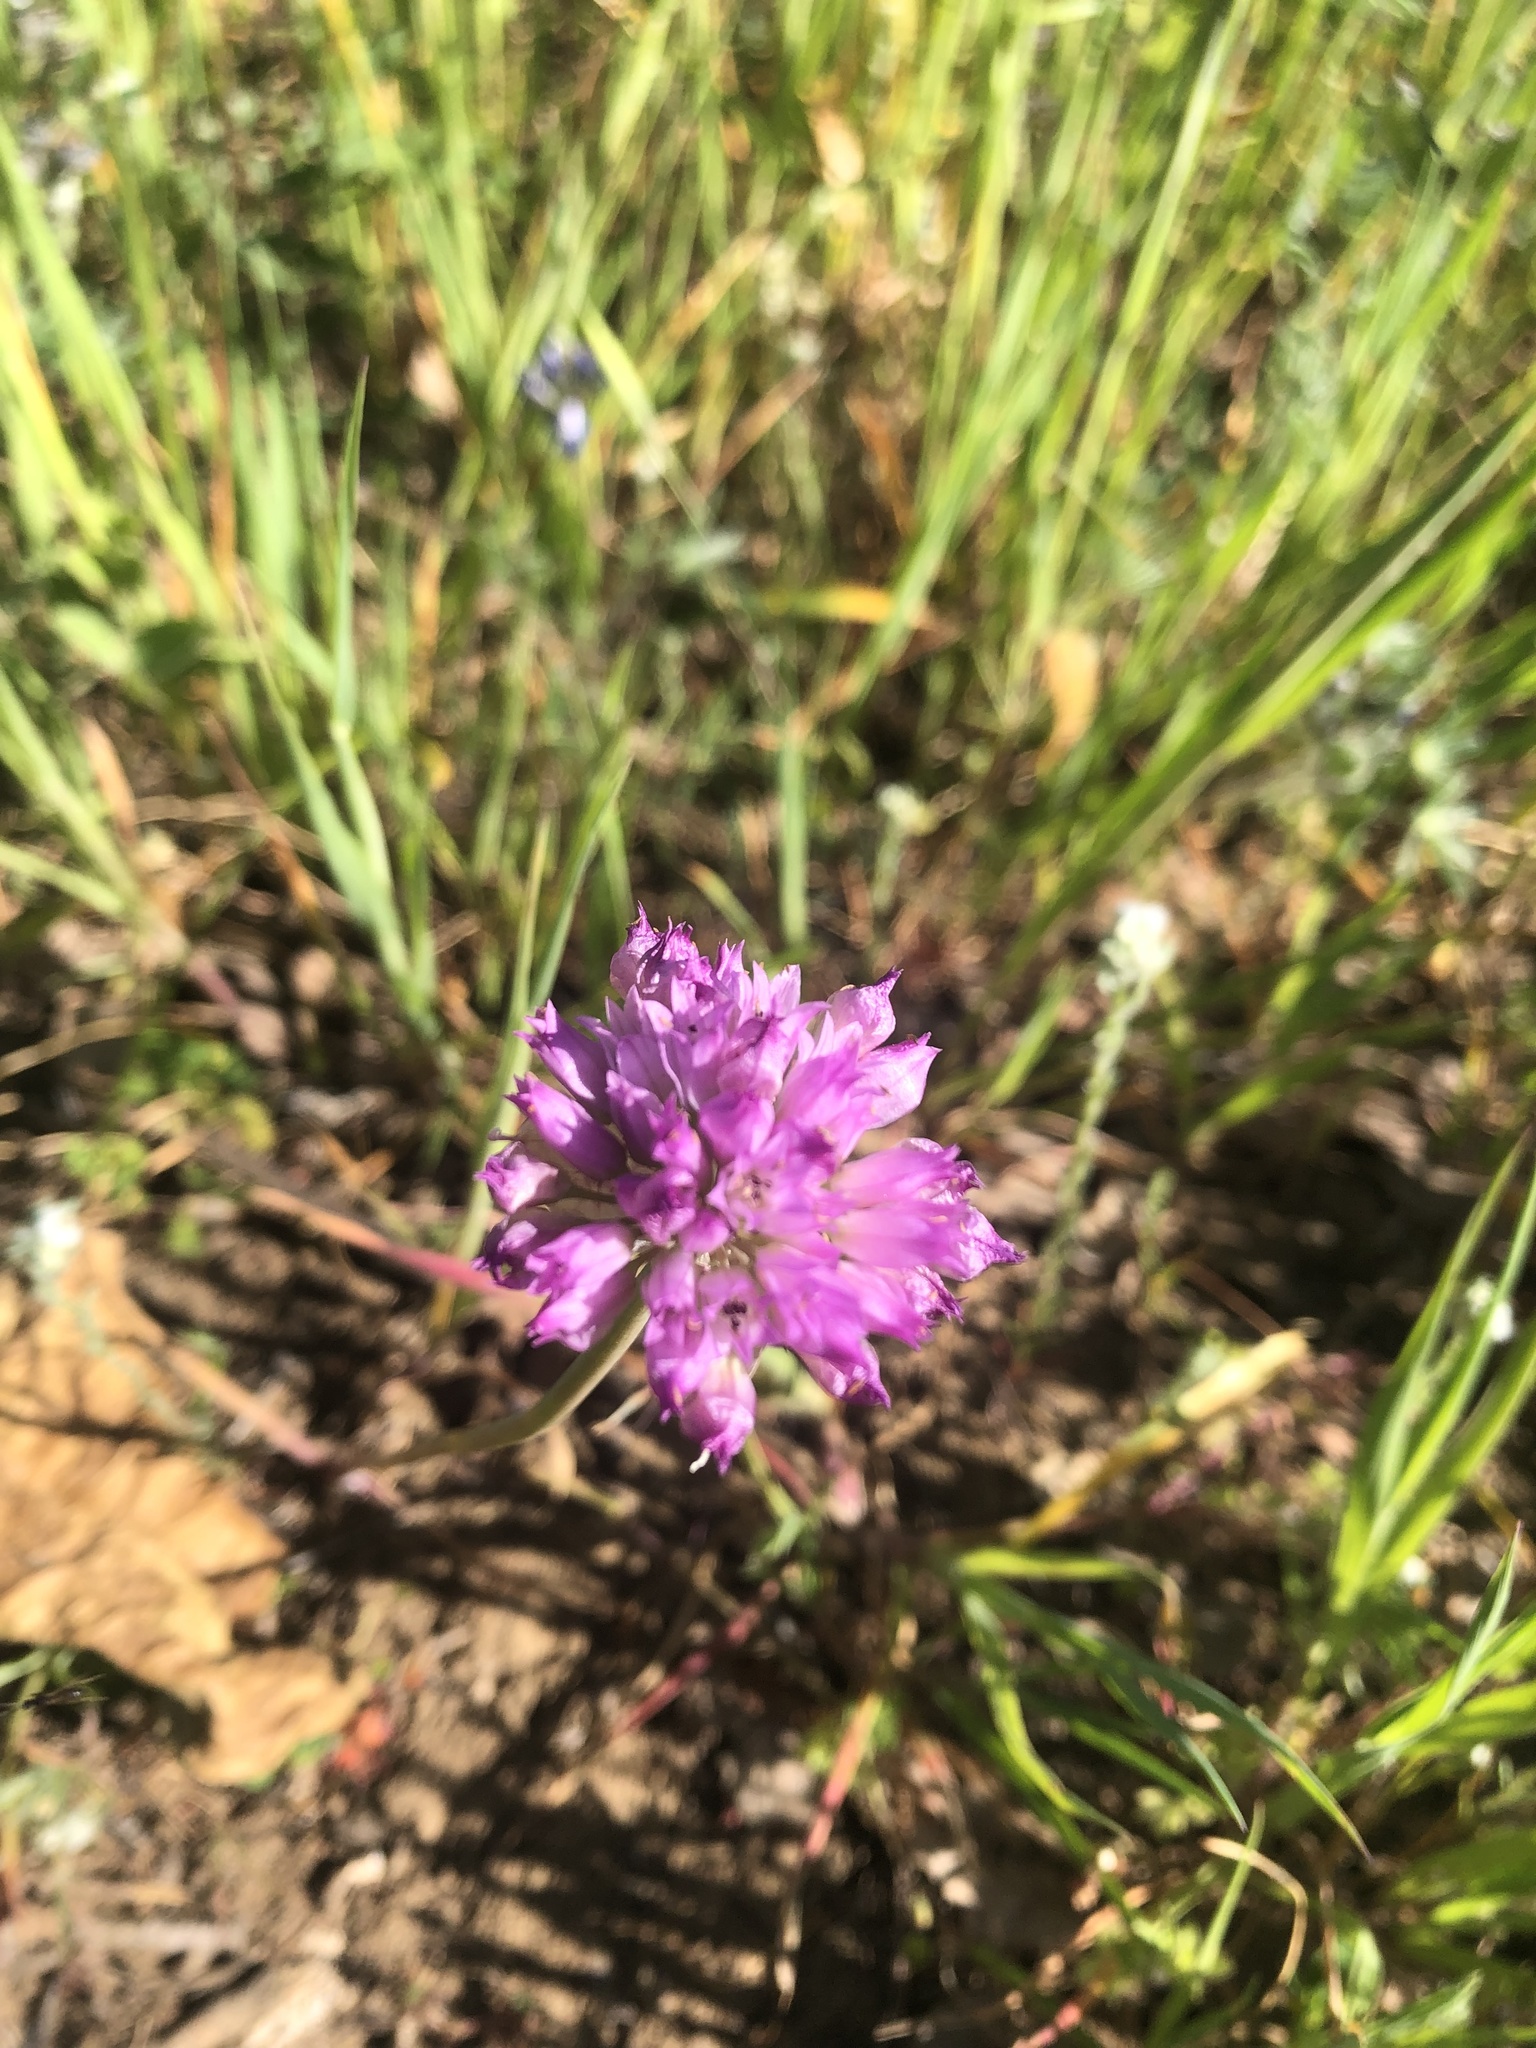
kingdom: Plantae
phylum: Tracheophyta
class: Liliopsida
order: Asparagales
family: Amaryllidaceae
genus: Allium
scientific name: Allium serra
